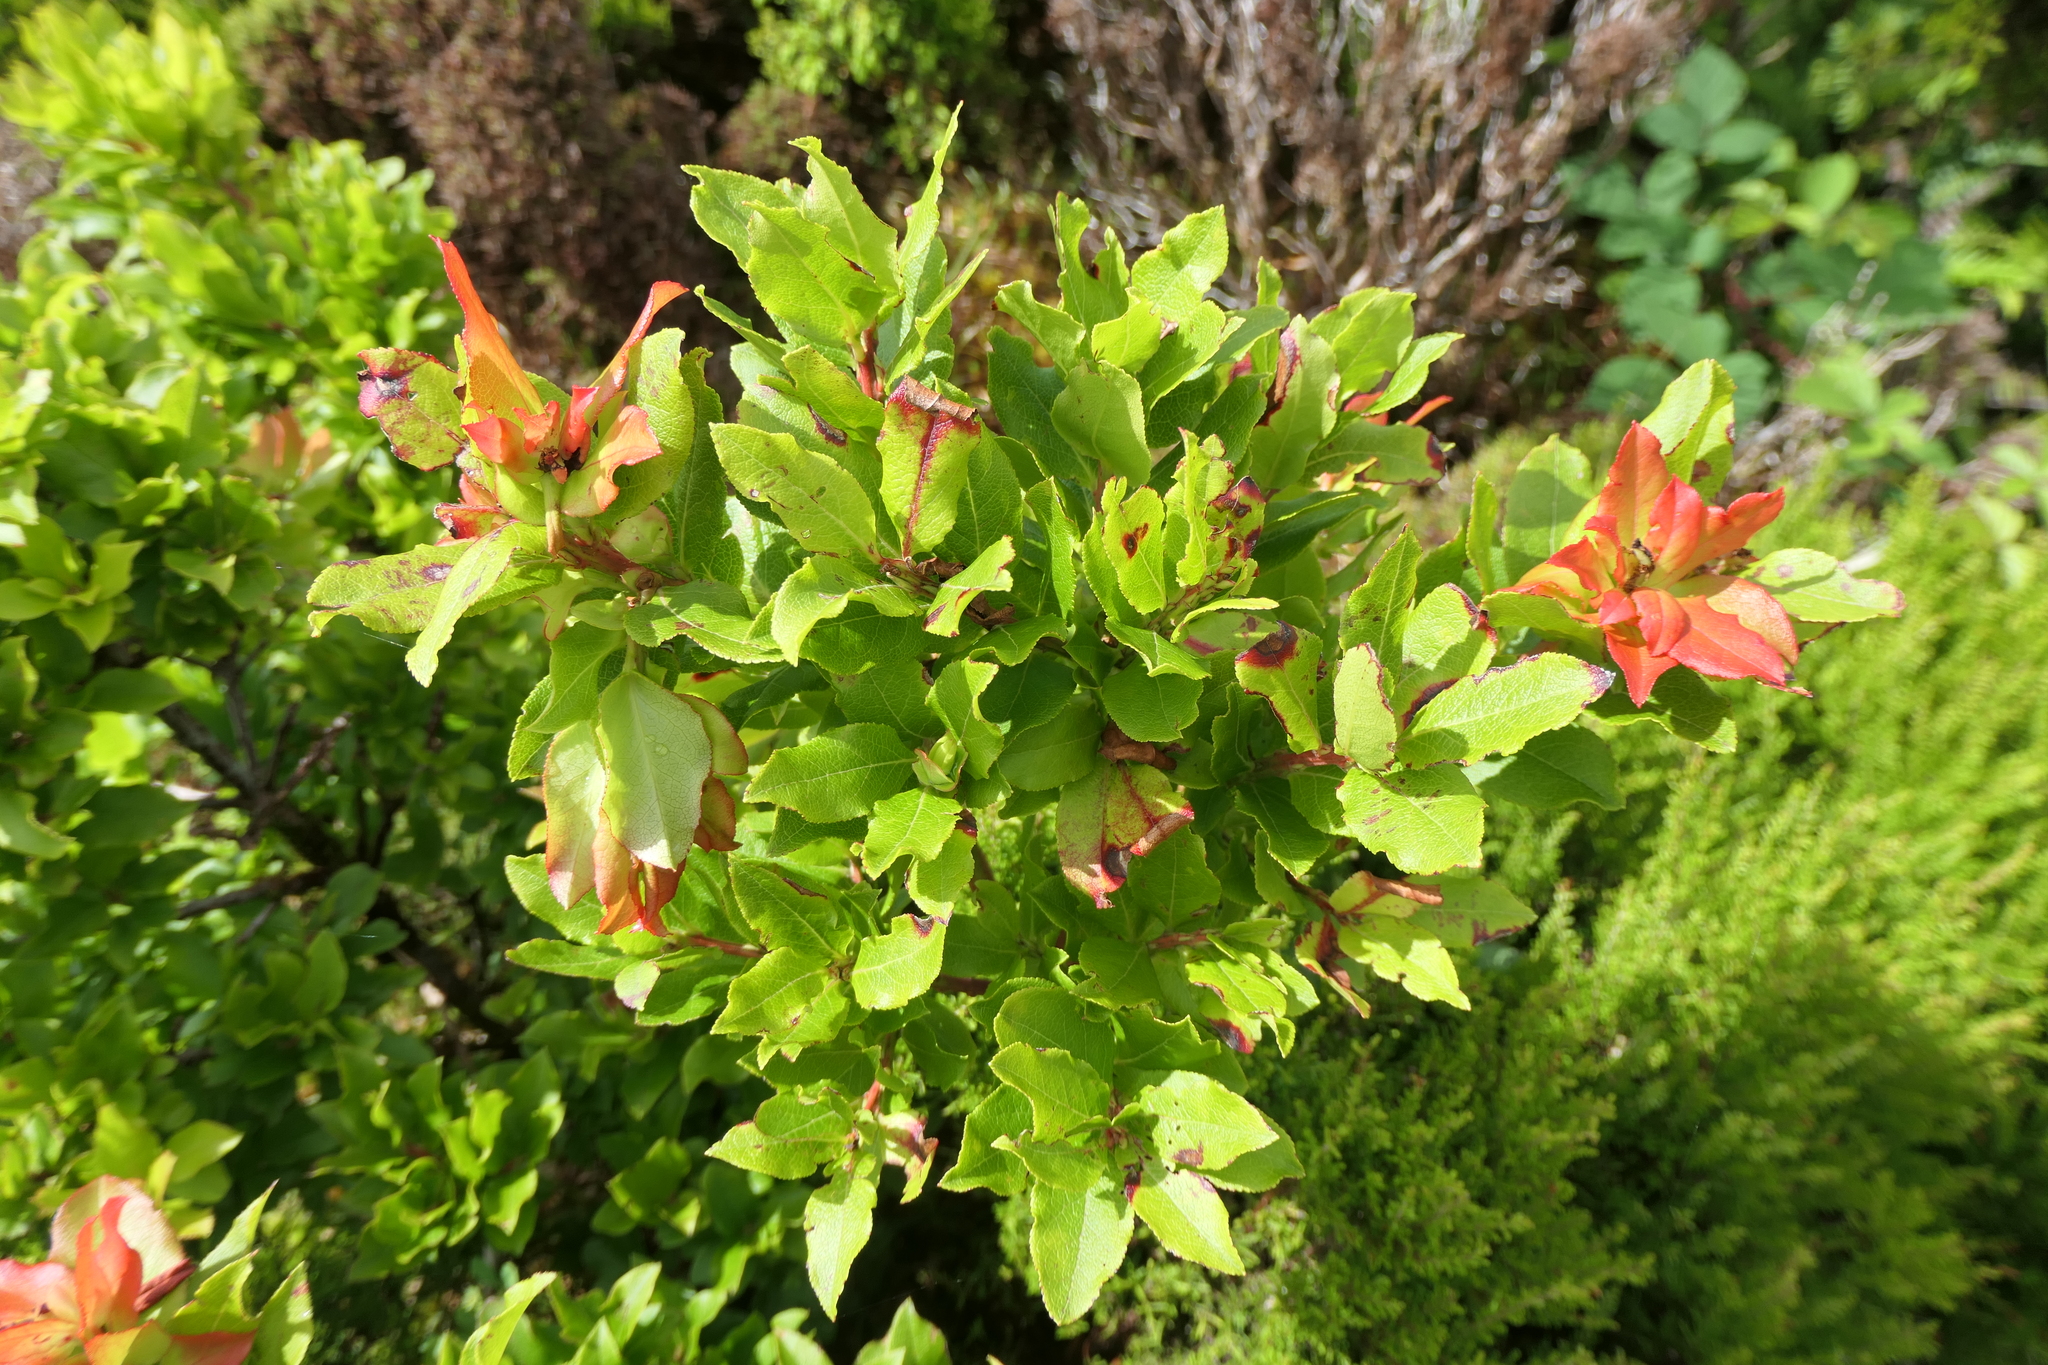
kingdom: Plantae
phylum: Tracheophyta
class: Magnoliopsida
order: Ericales
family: Ericaceae
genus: Vaccinium
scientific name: Vaccinium cylindraceum
